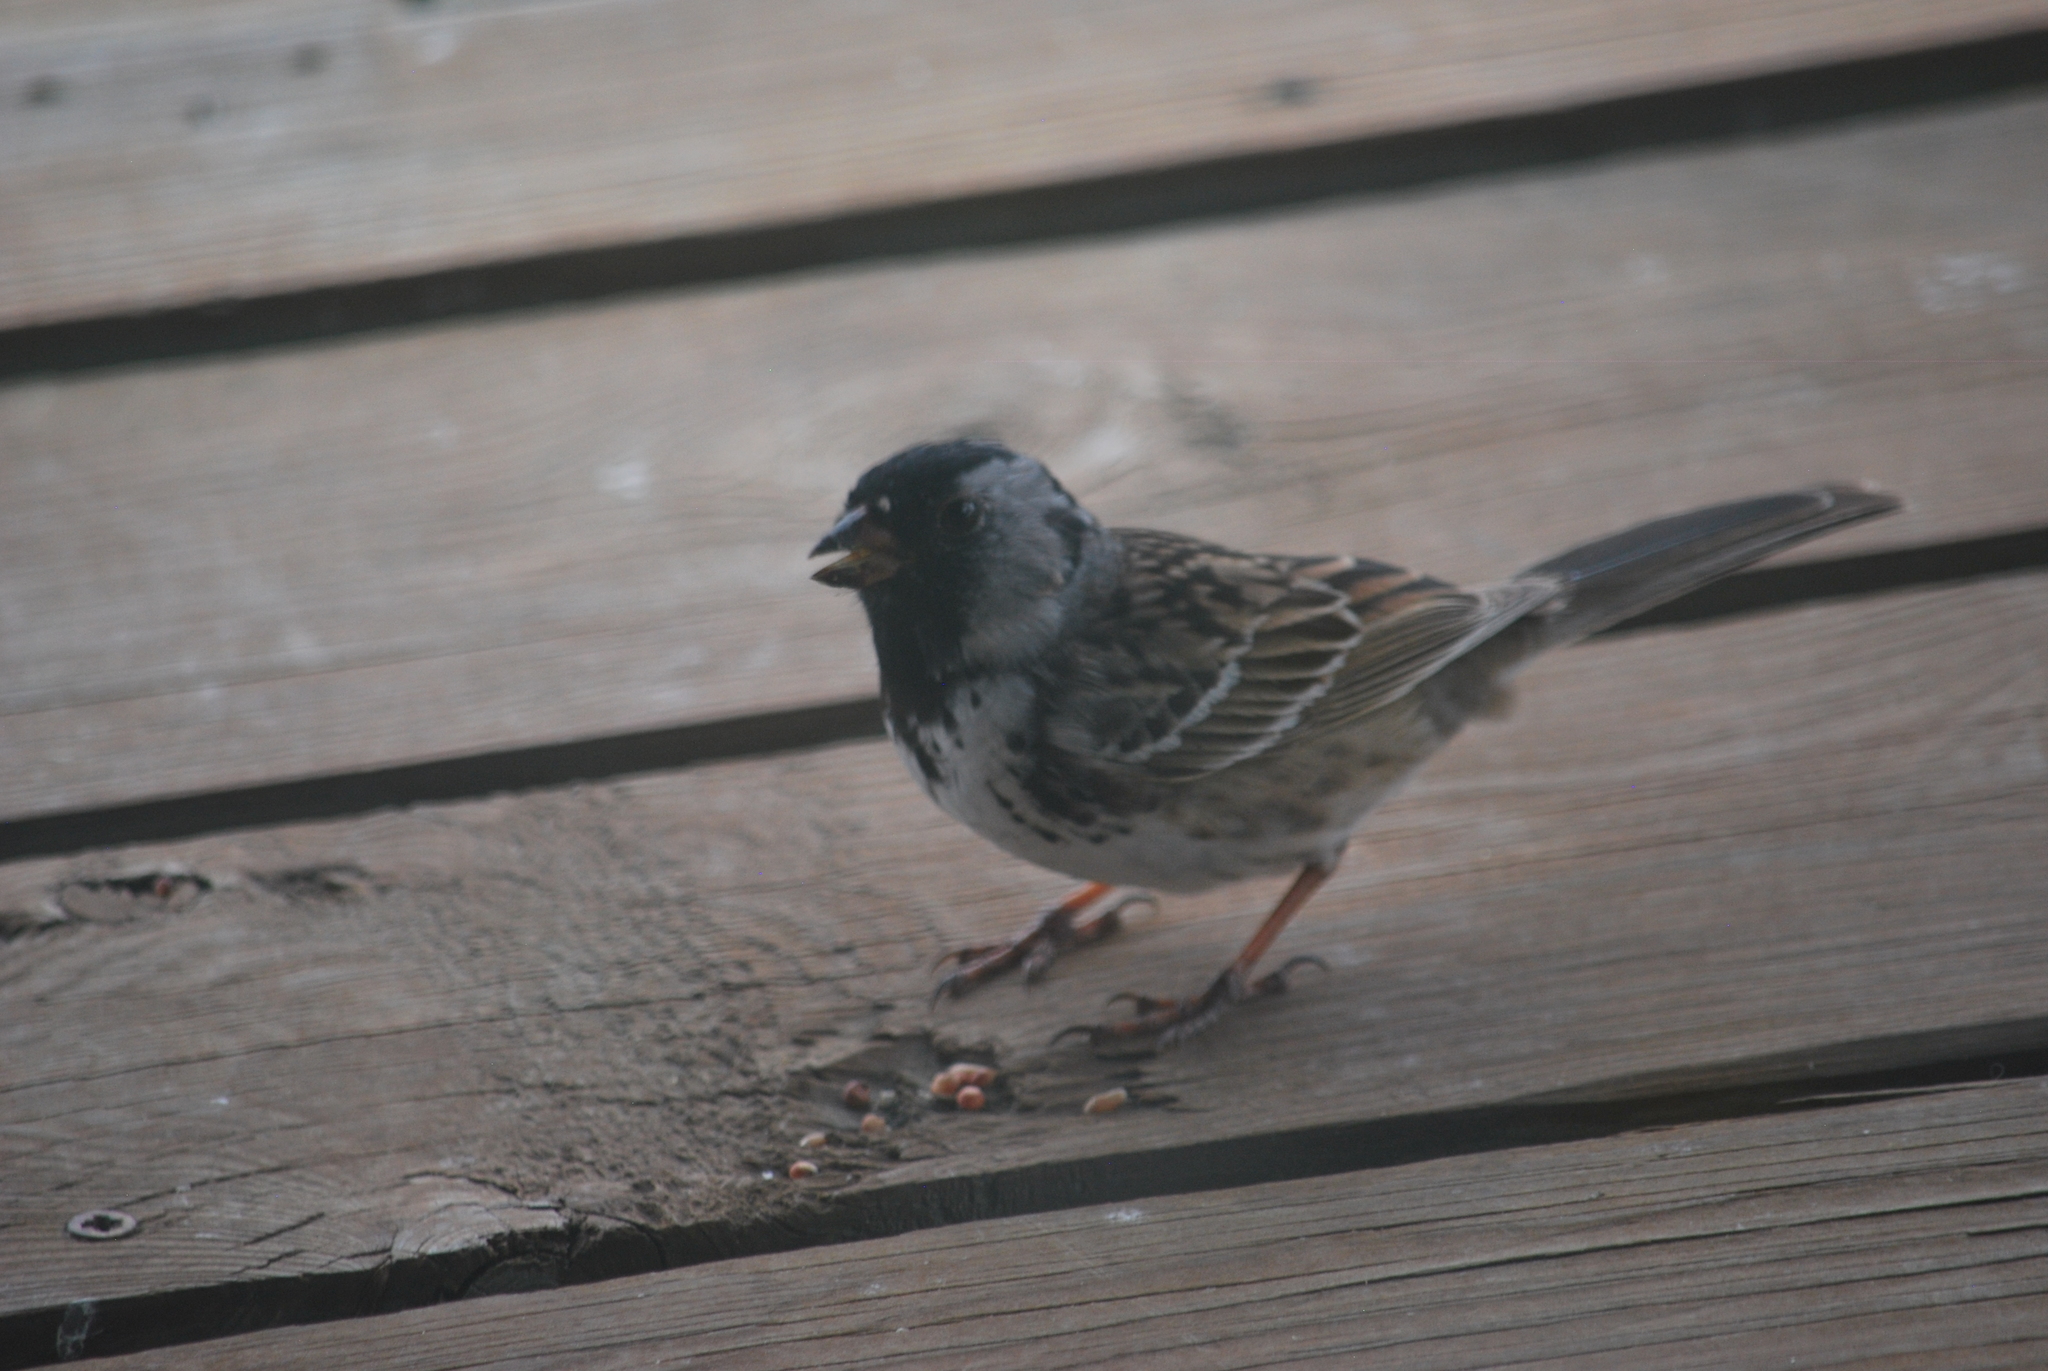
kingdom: Animalia
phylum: Chordata
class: Aves
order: Passeriformes
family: Passerellidae
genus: Zonotrichia
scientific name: Zonotrichia querula
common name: Harris's sparrow
